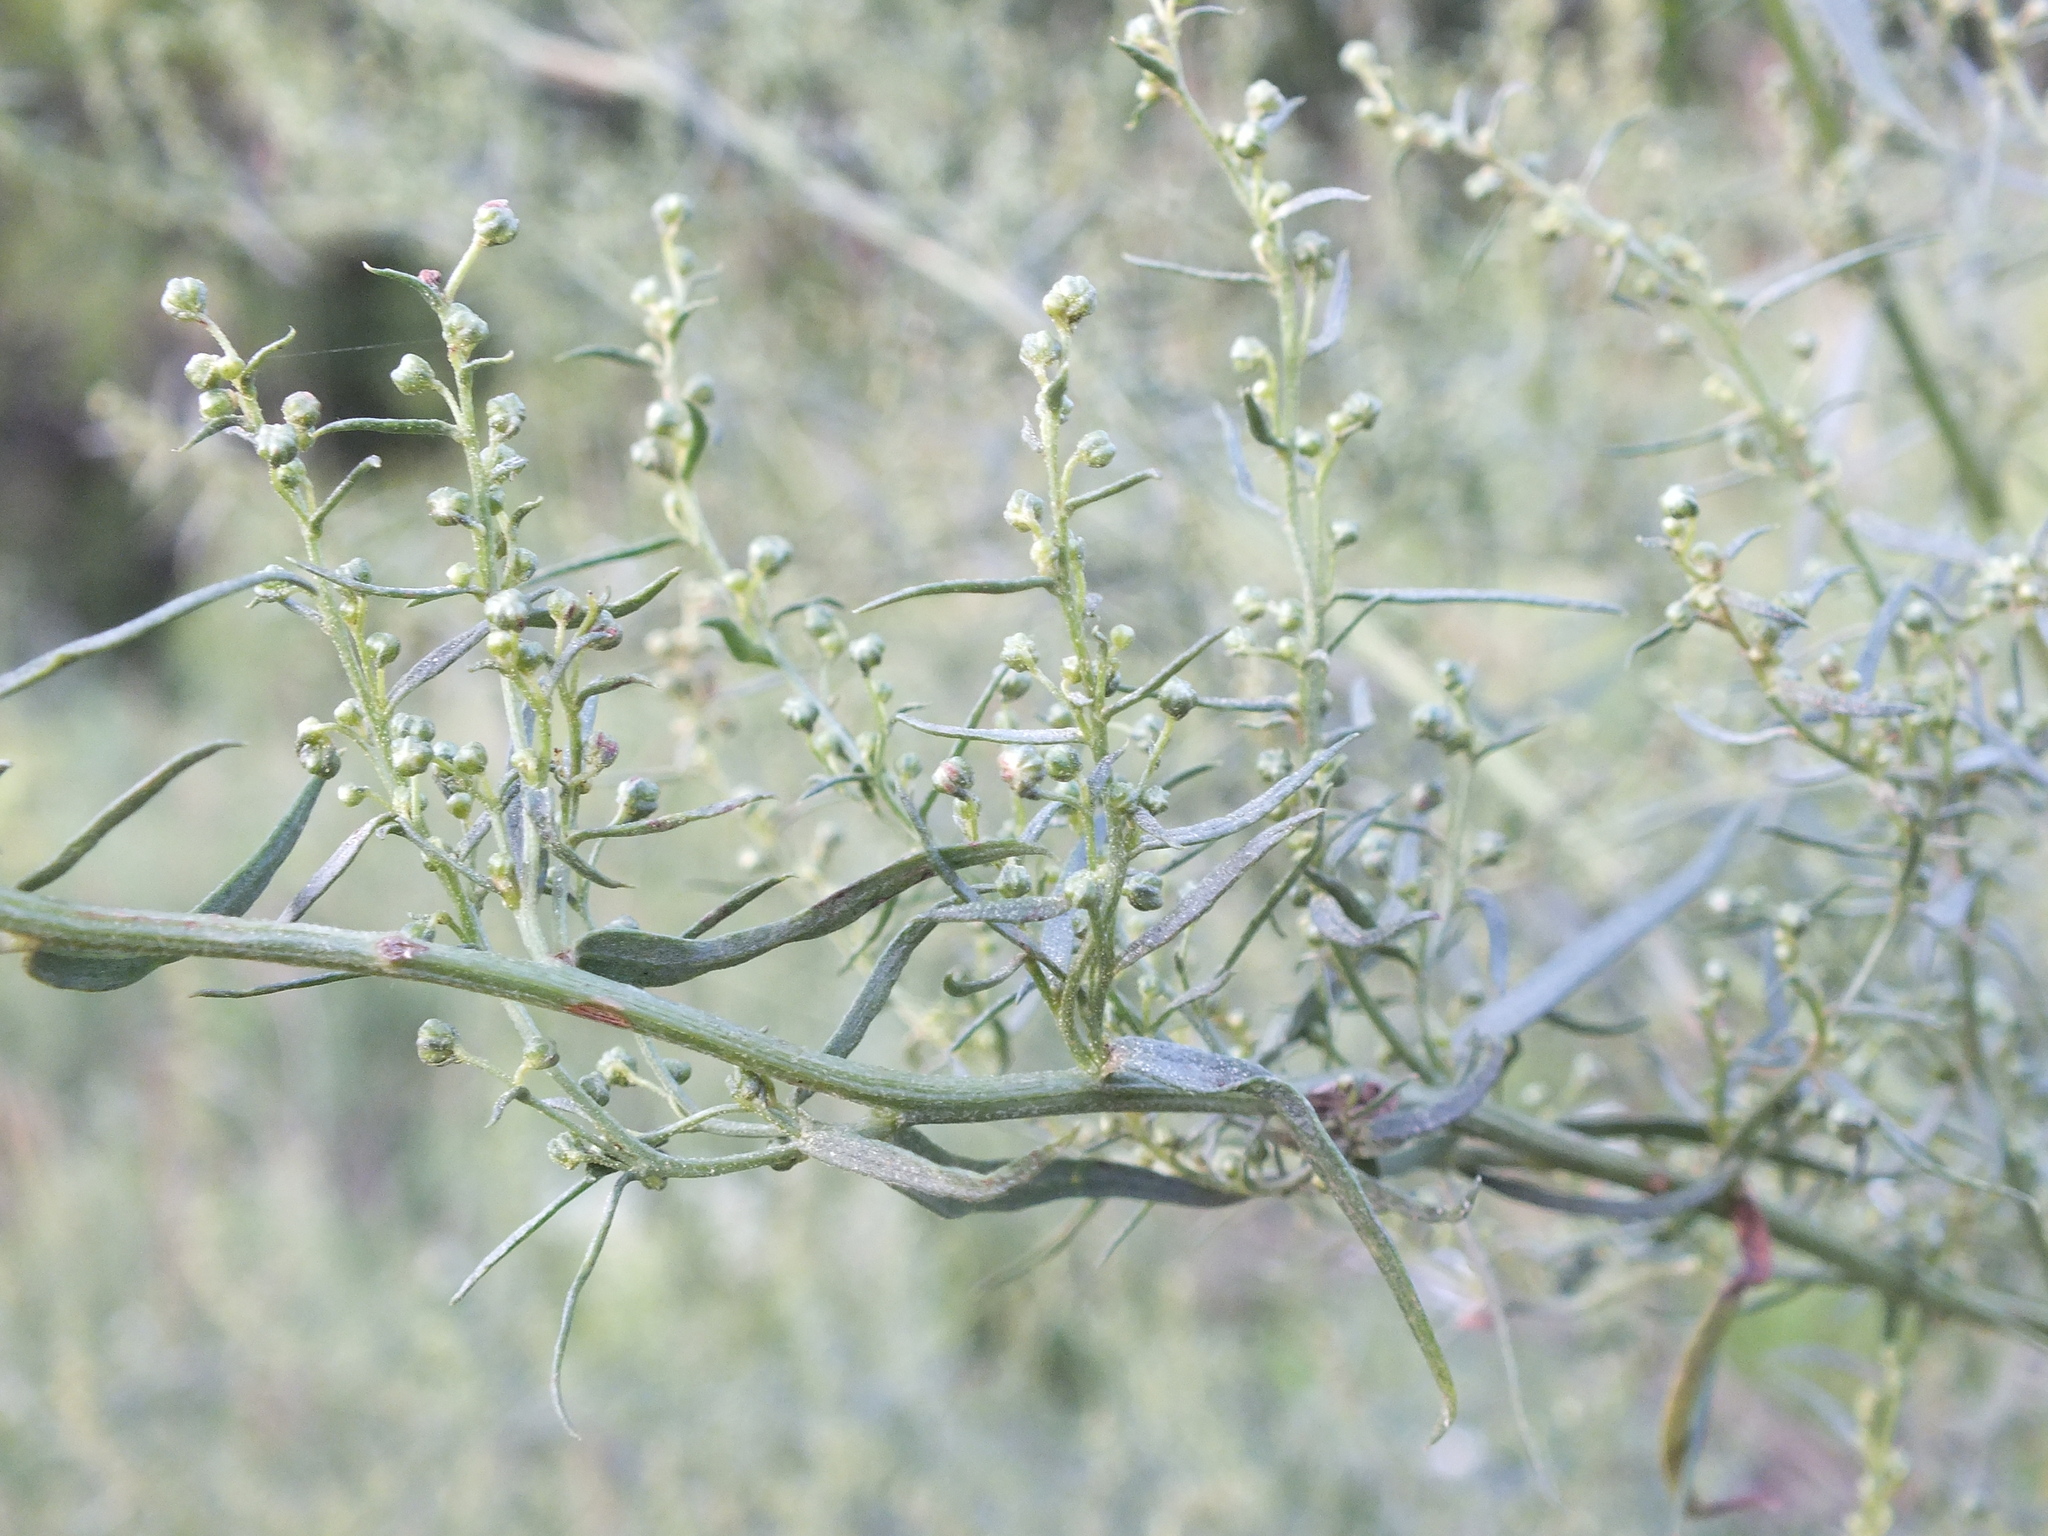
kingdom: Plantae
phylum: Tracheophyta
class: Magnoliopsida
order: Asterales
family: Asteraceae
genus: Artemisia
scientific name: Artemisia dracunculus
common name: Tarragon
